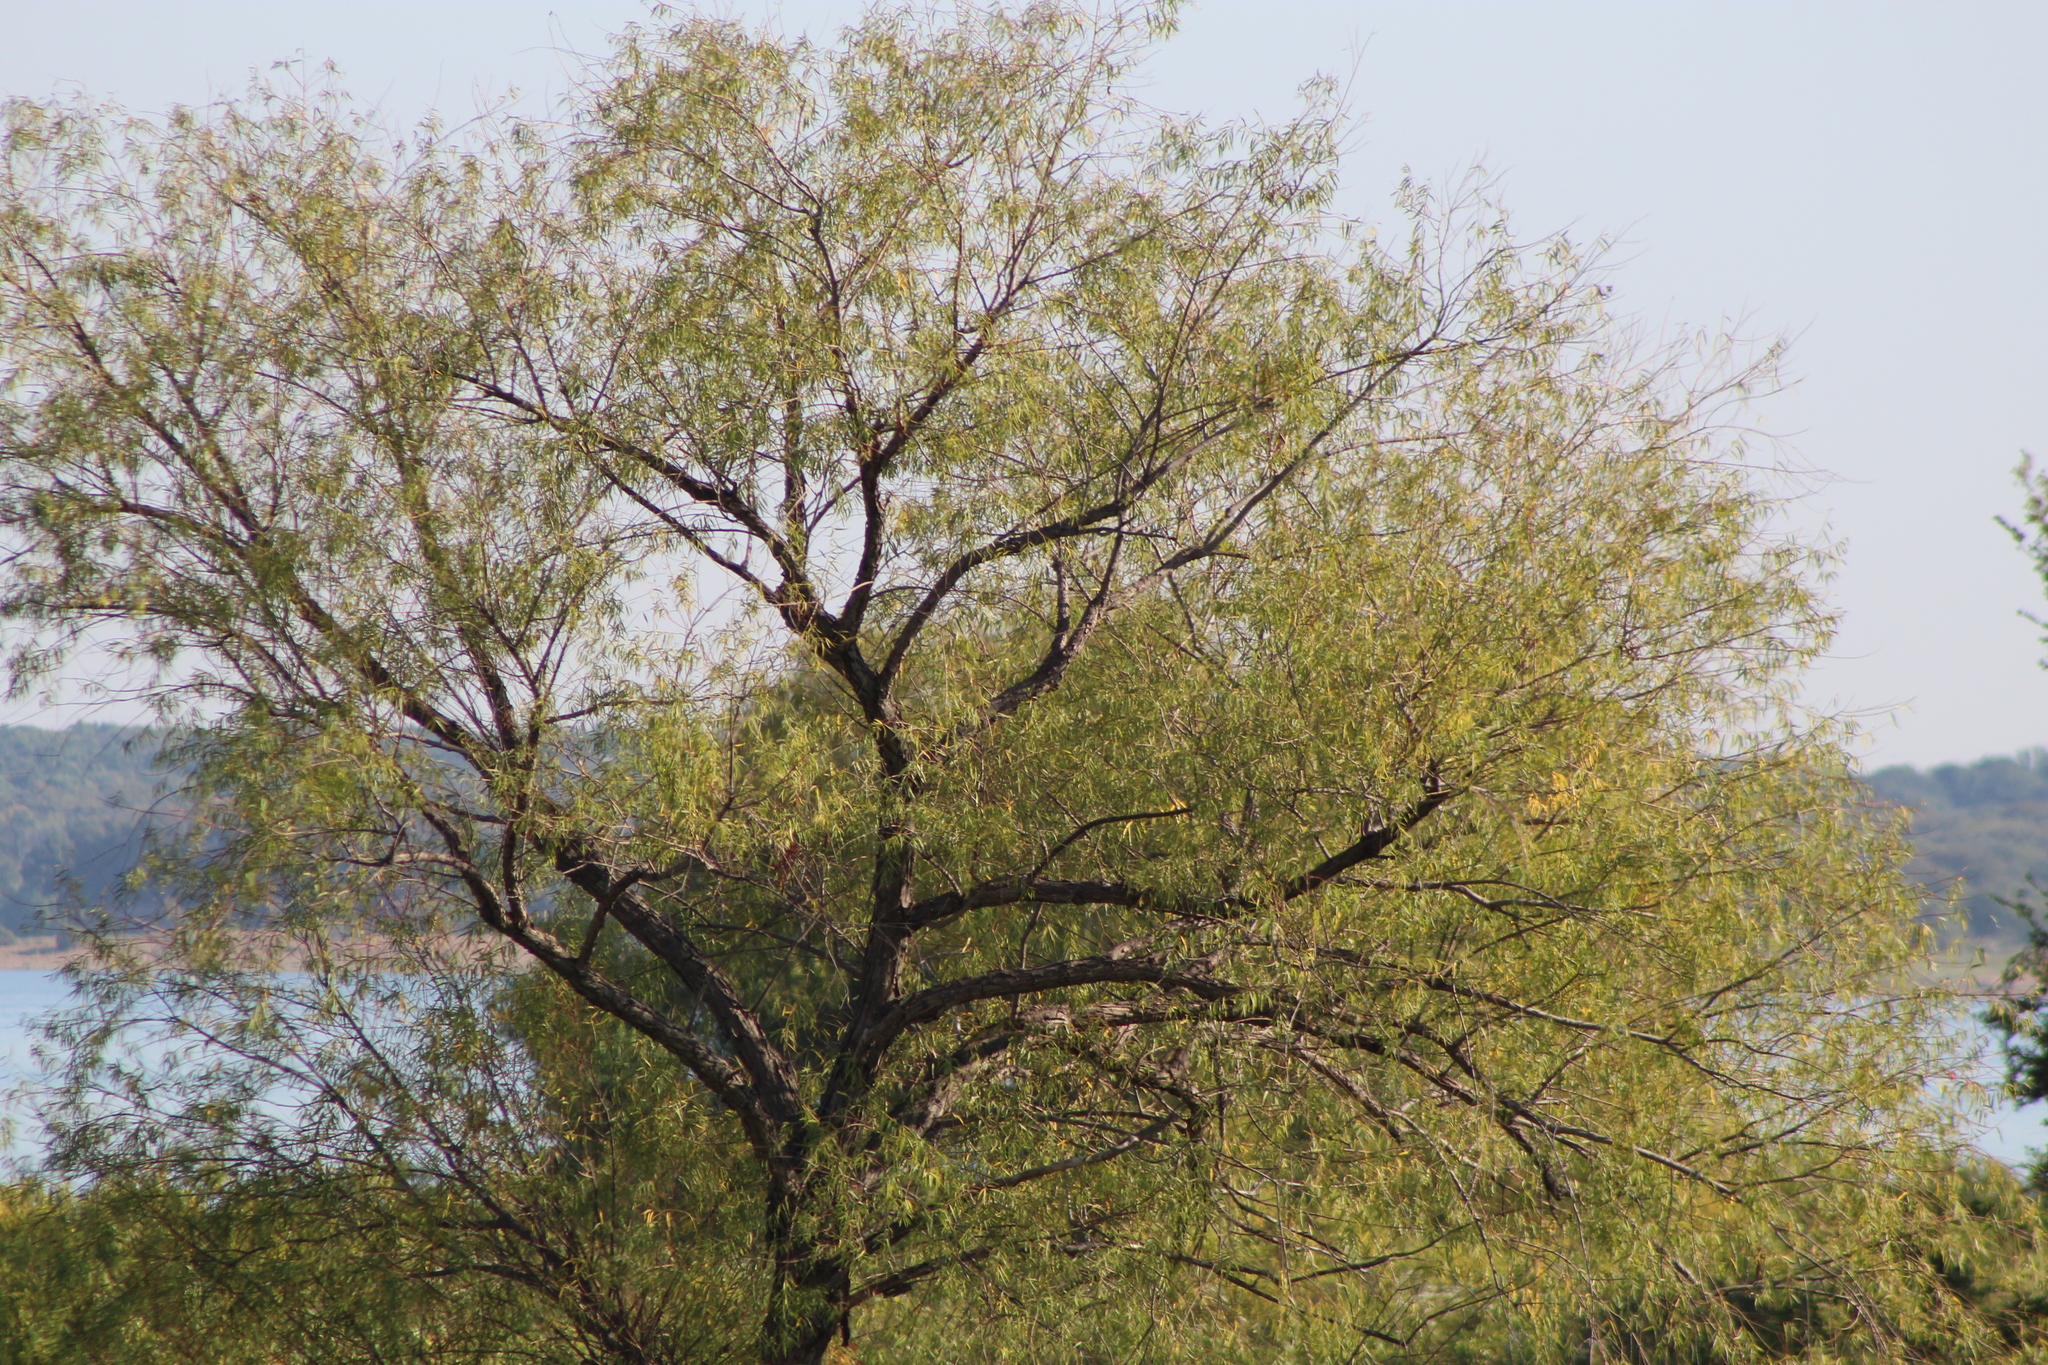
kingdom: Plantae
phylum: Tracheophyta
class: Magnoliopsida
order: Malpighiales
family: Salicaceae
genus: Salix
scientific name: Salix nigra
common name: Black willow
